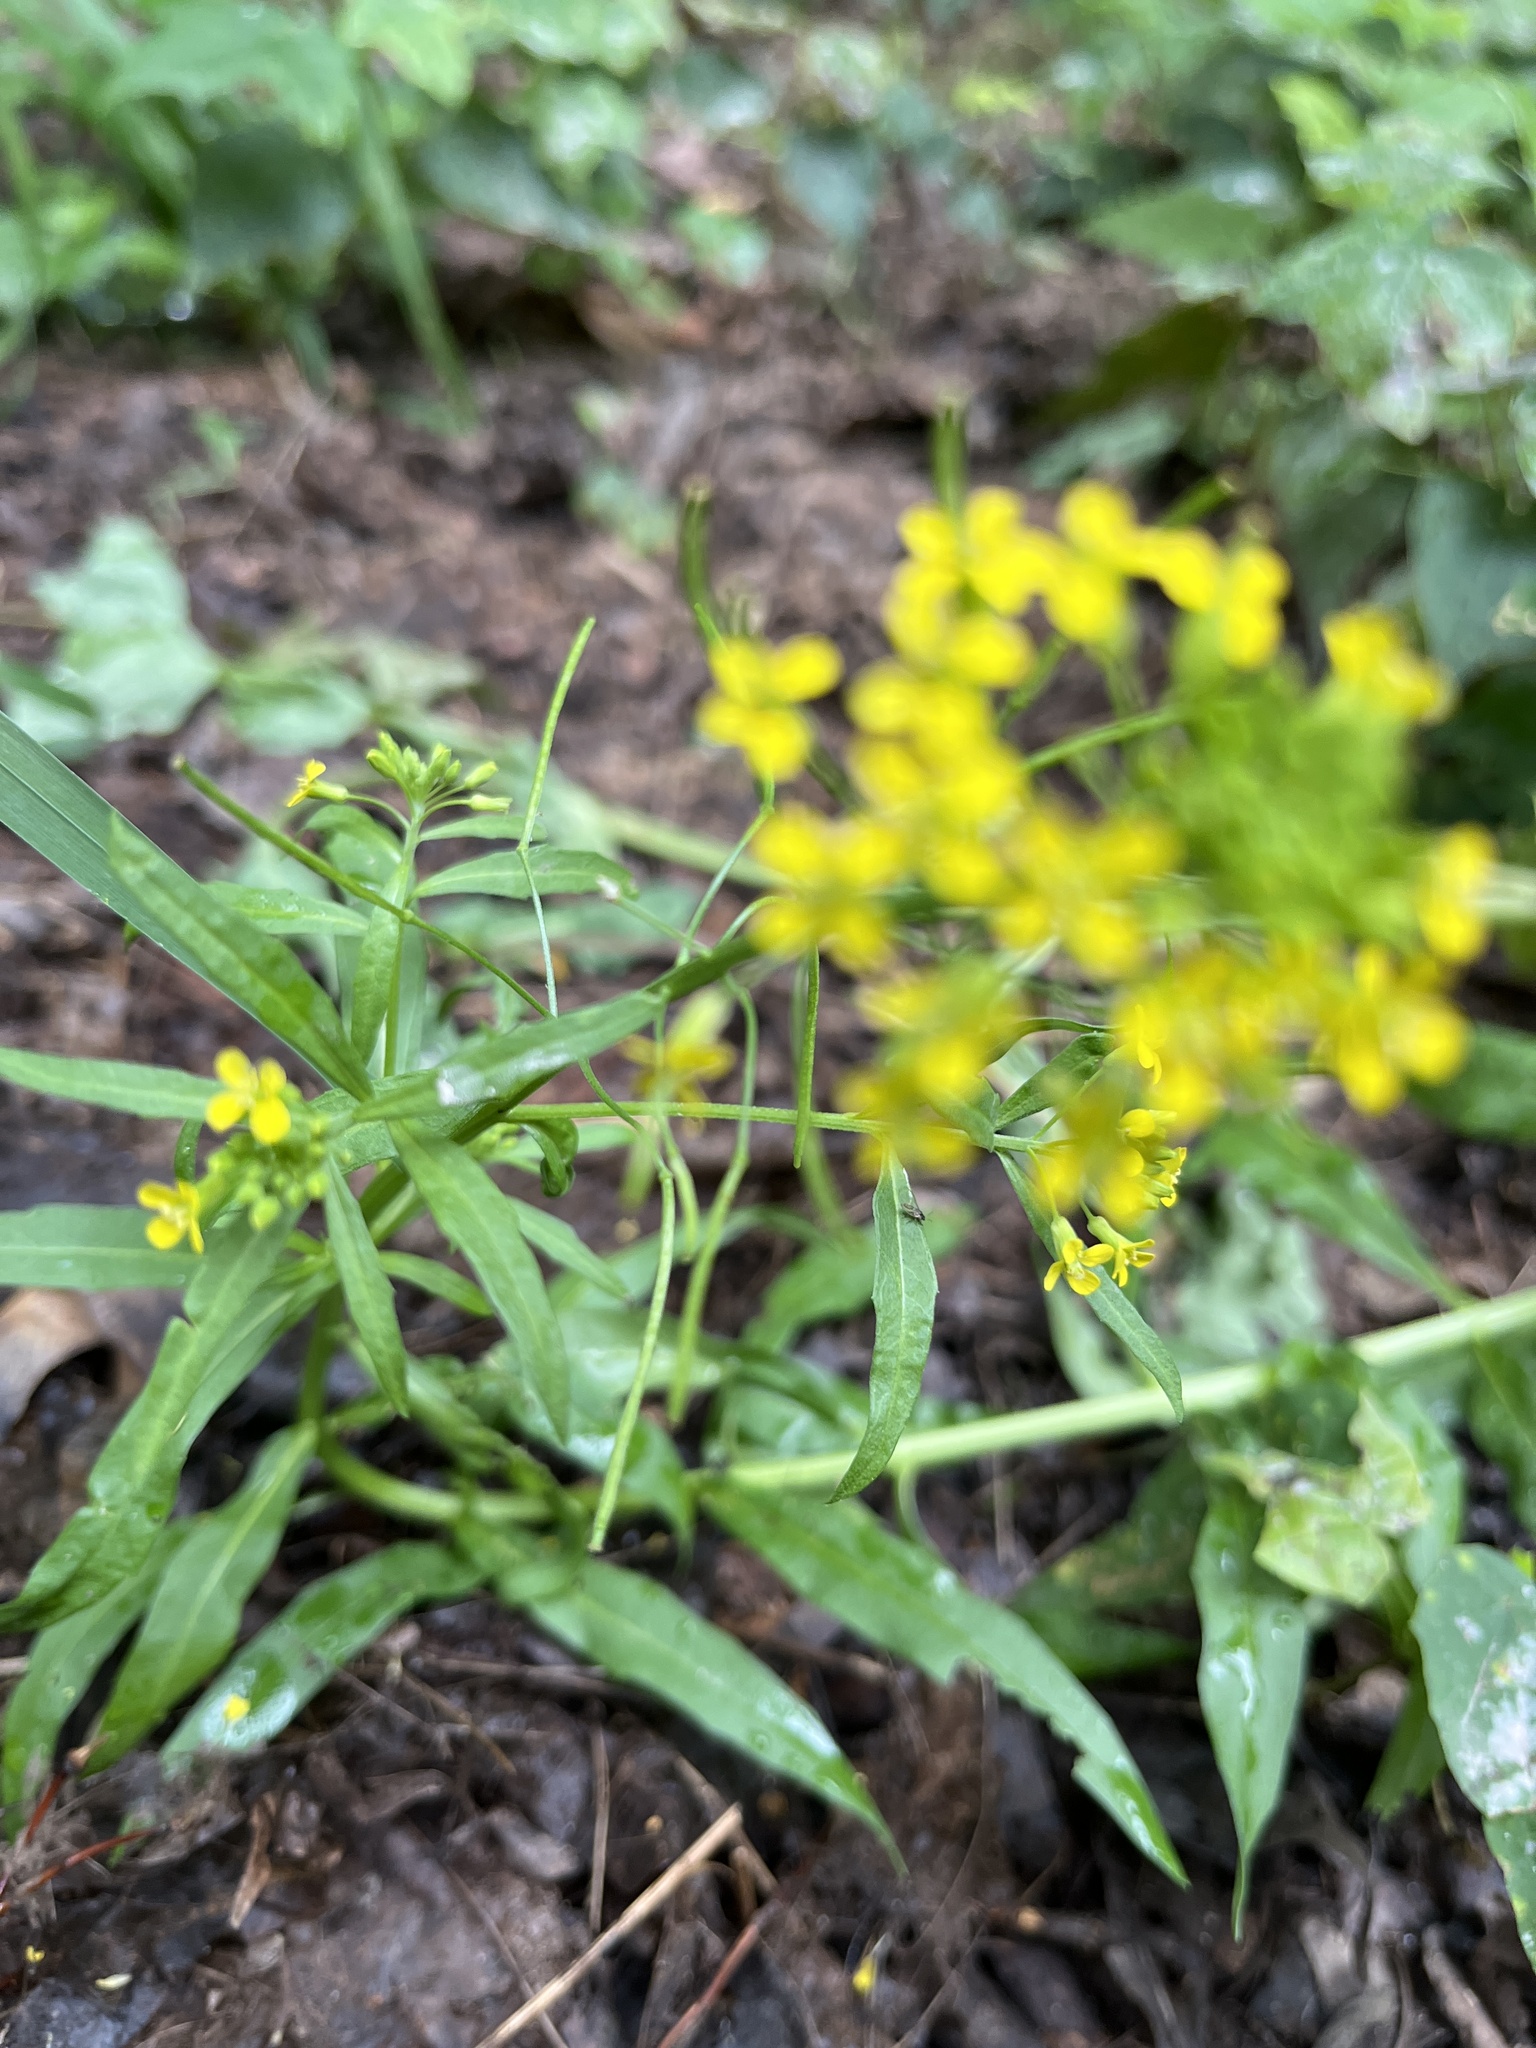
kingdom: Plantae
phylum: Tracheophyta
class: Magnoliopsida
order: Brassicales
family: Brassicaceae
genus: Erysimum
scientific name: Erysimum cheiranthoides
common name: Treacle mustard
